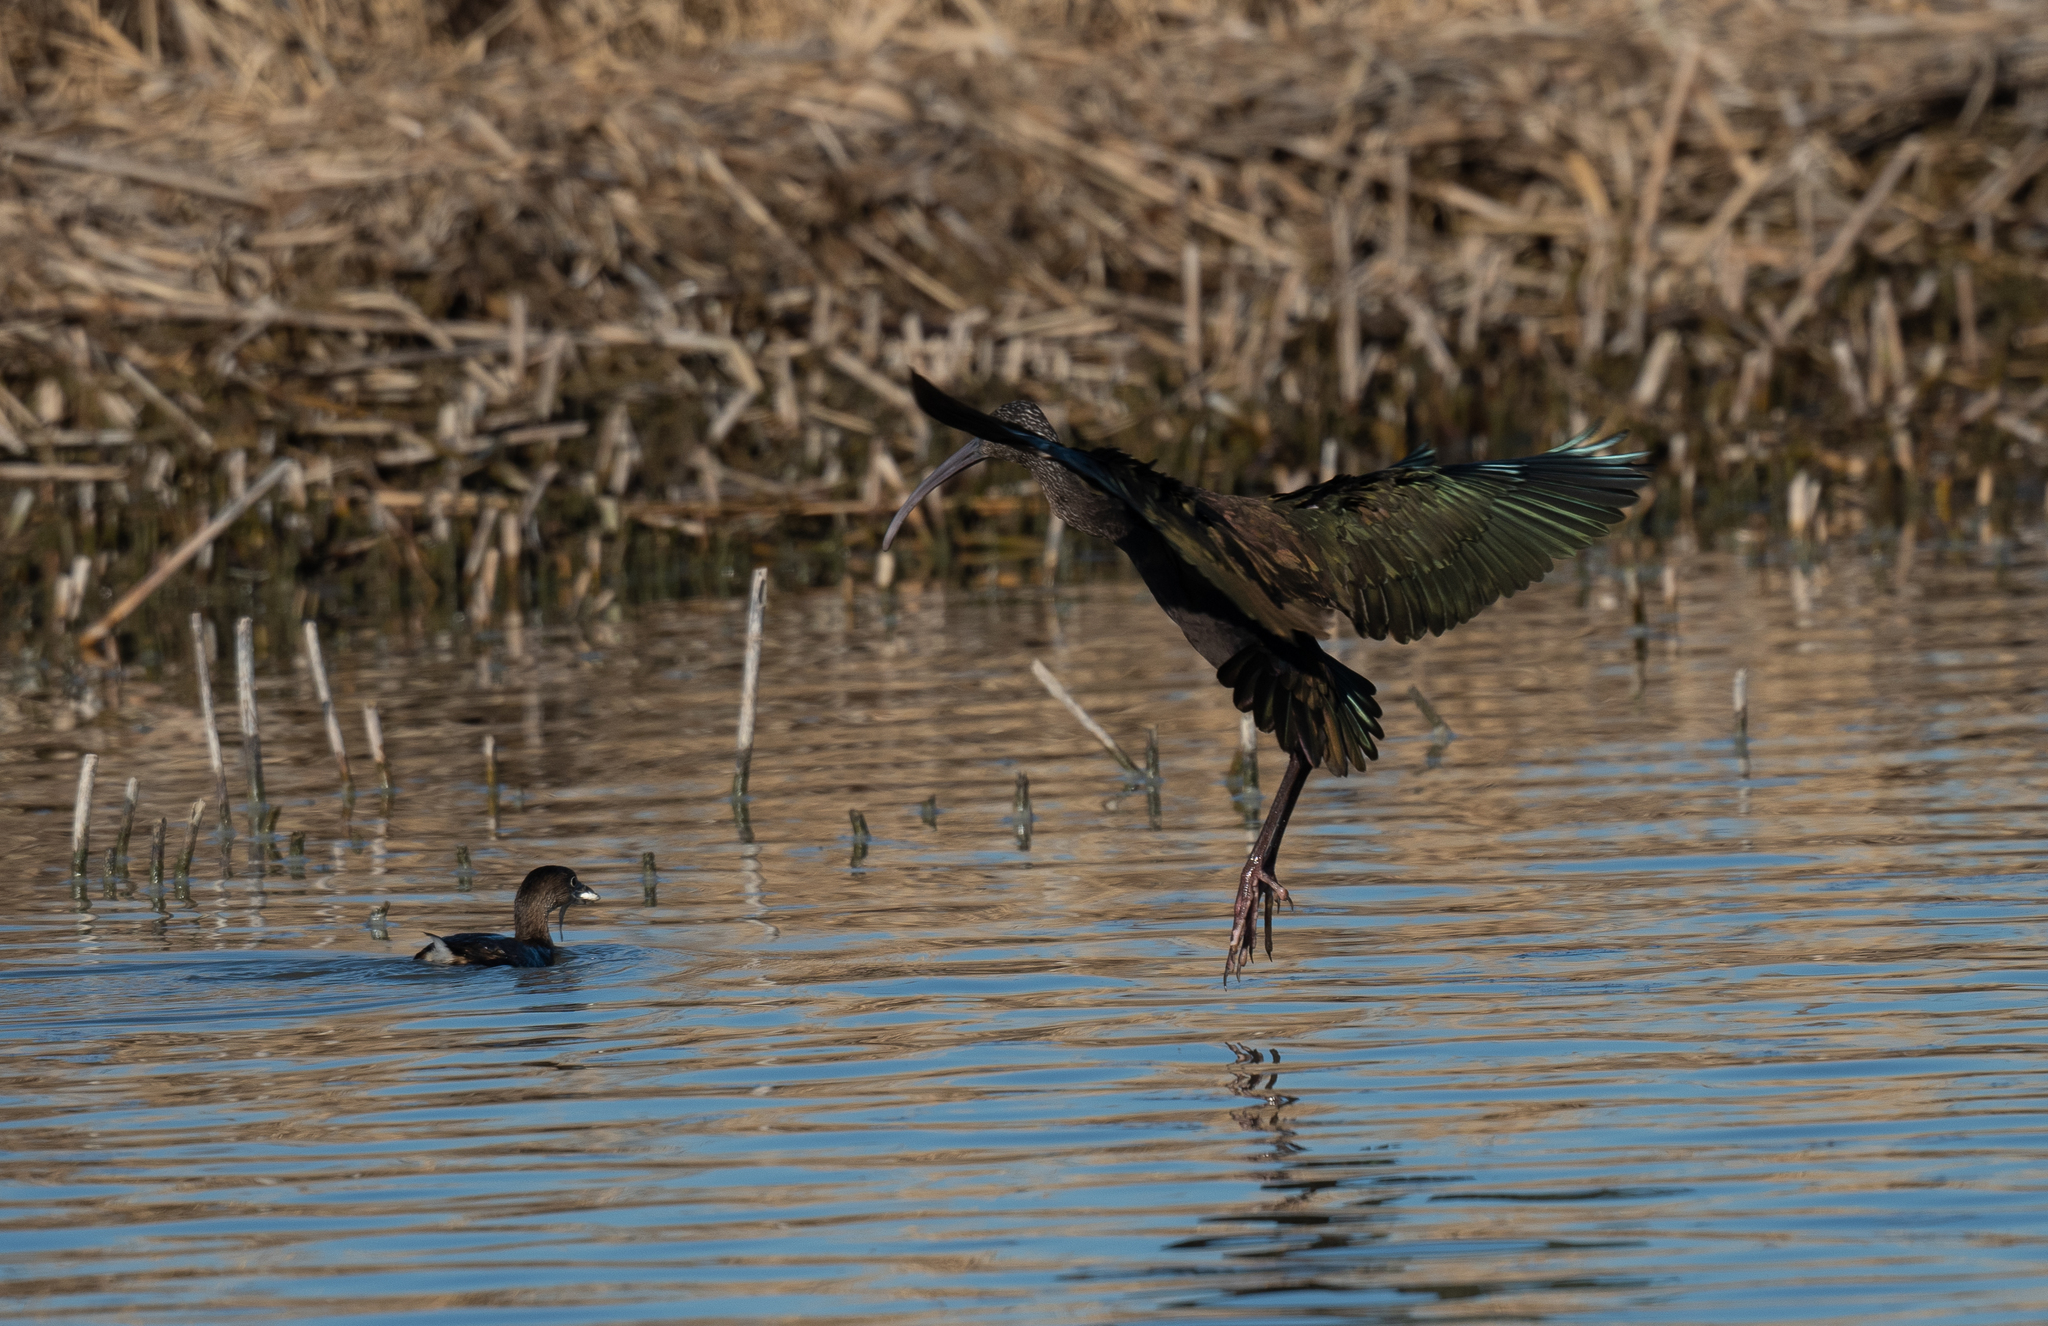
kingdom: Animalia
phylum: Chordata
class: Aves
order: Pelecaniformes
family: Threskiornithidae
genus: Plegadis
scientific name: Plegadis chihi
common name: White-faced ibis
